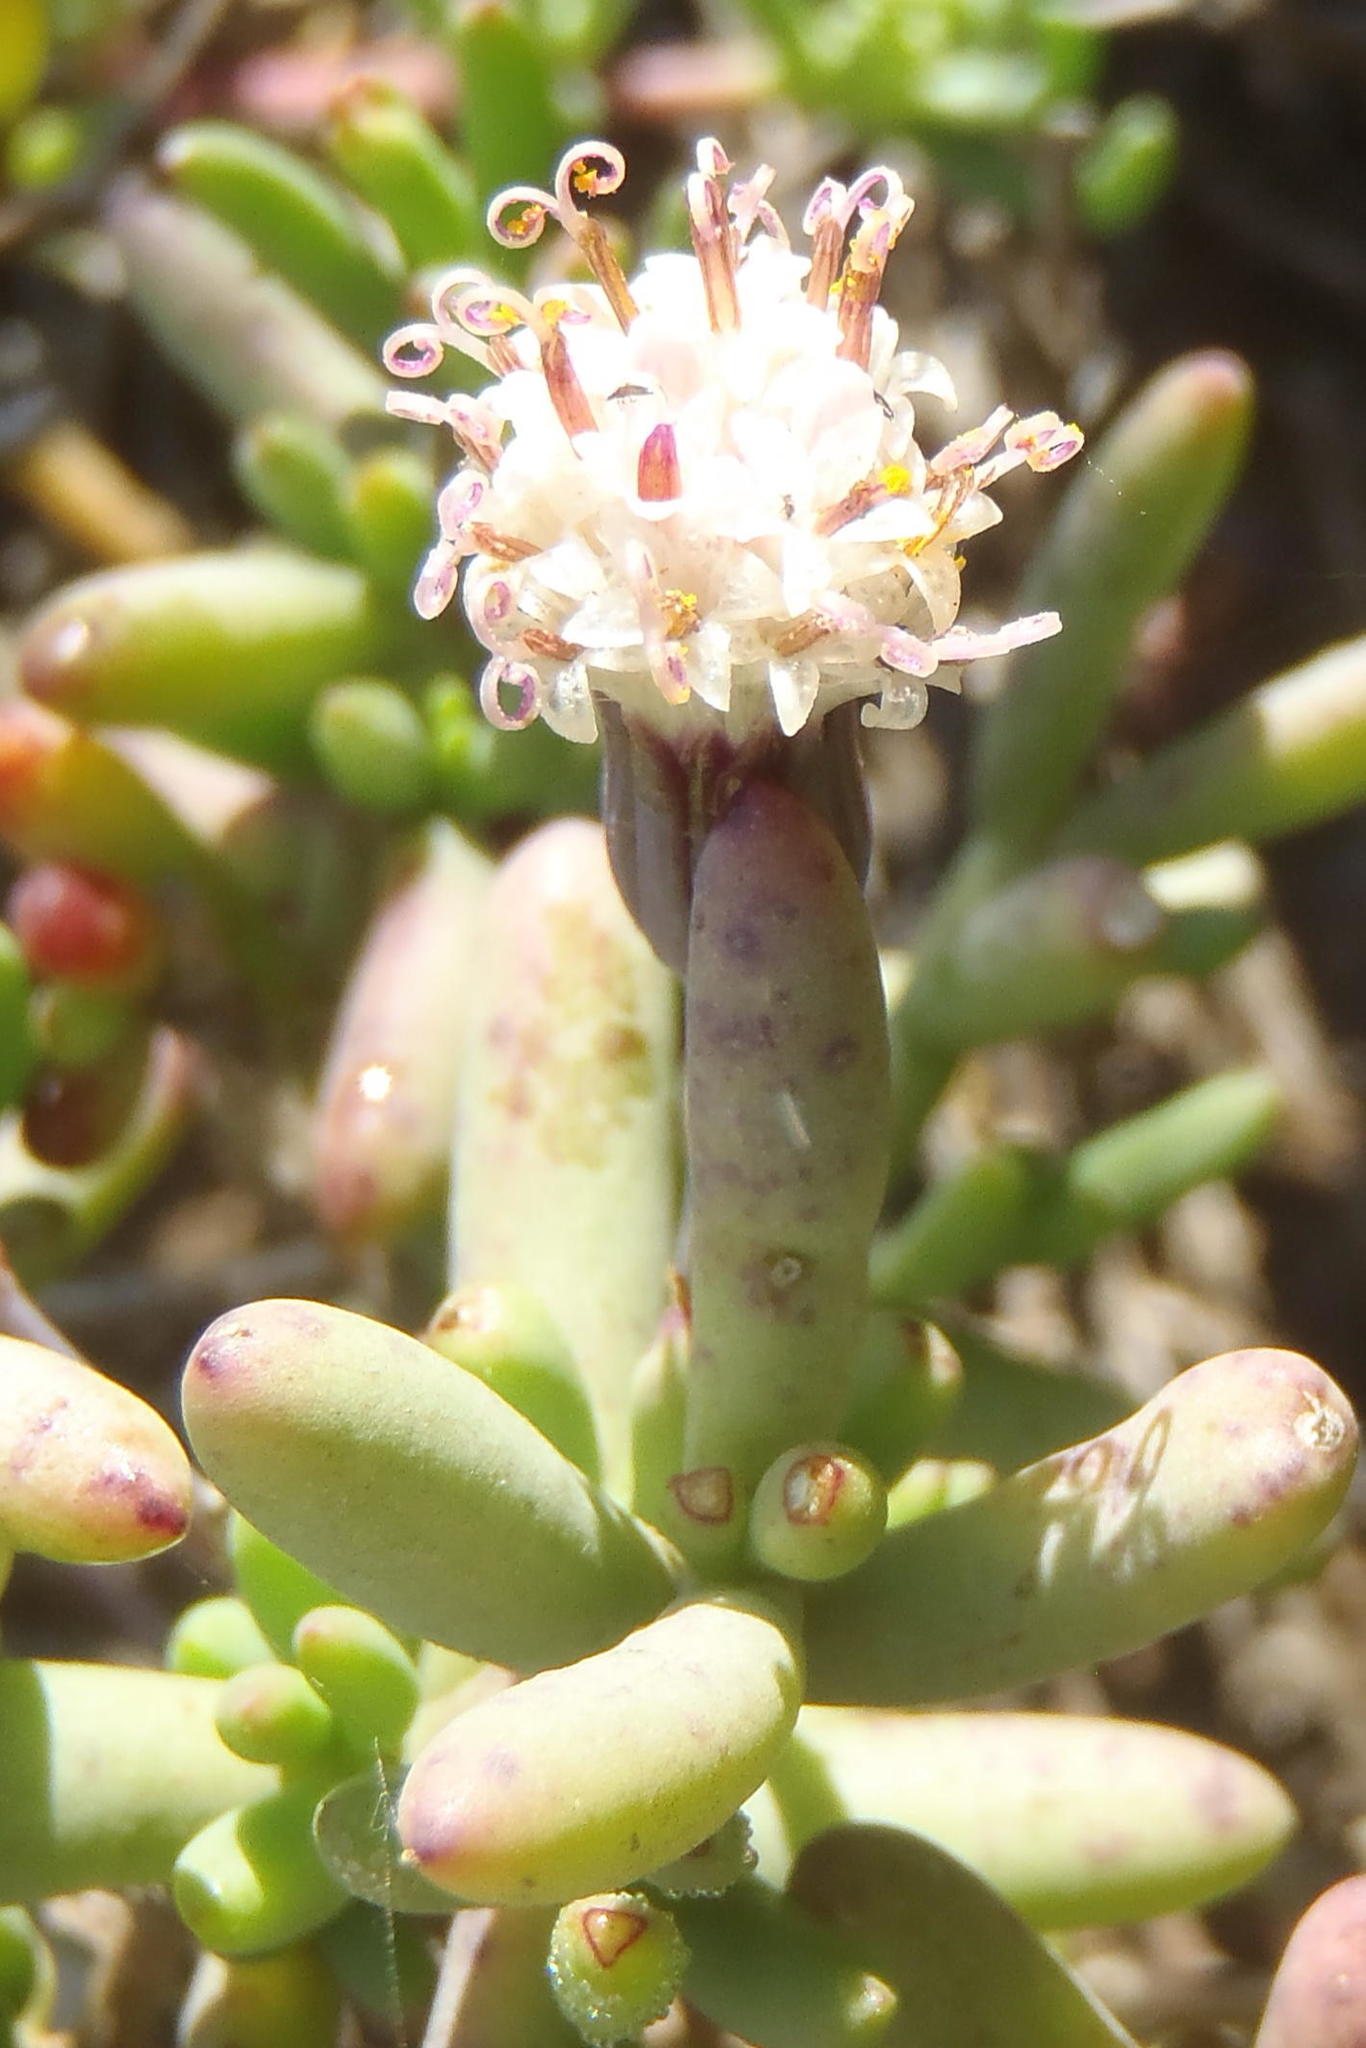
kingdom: Plantae
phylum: Tracheophyta
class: Magnoliopsida
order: Asterales
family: Asteraceae
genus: Curio
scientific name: Curio radicans
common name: Creeping-berry
